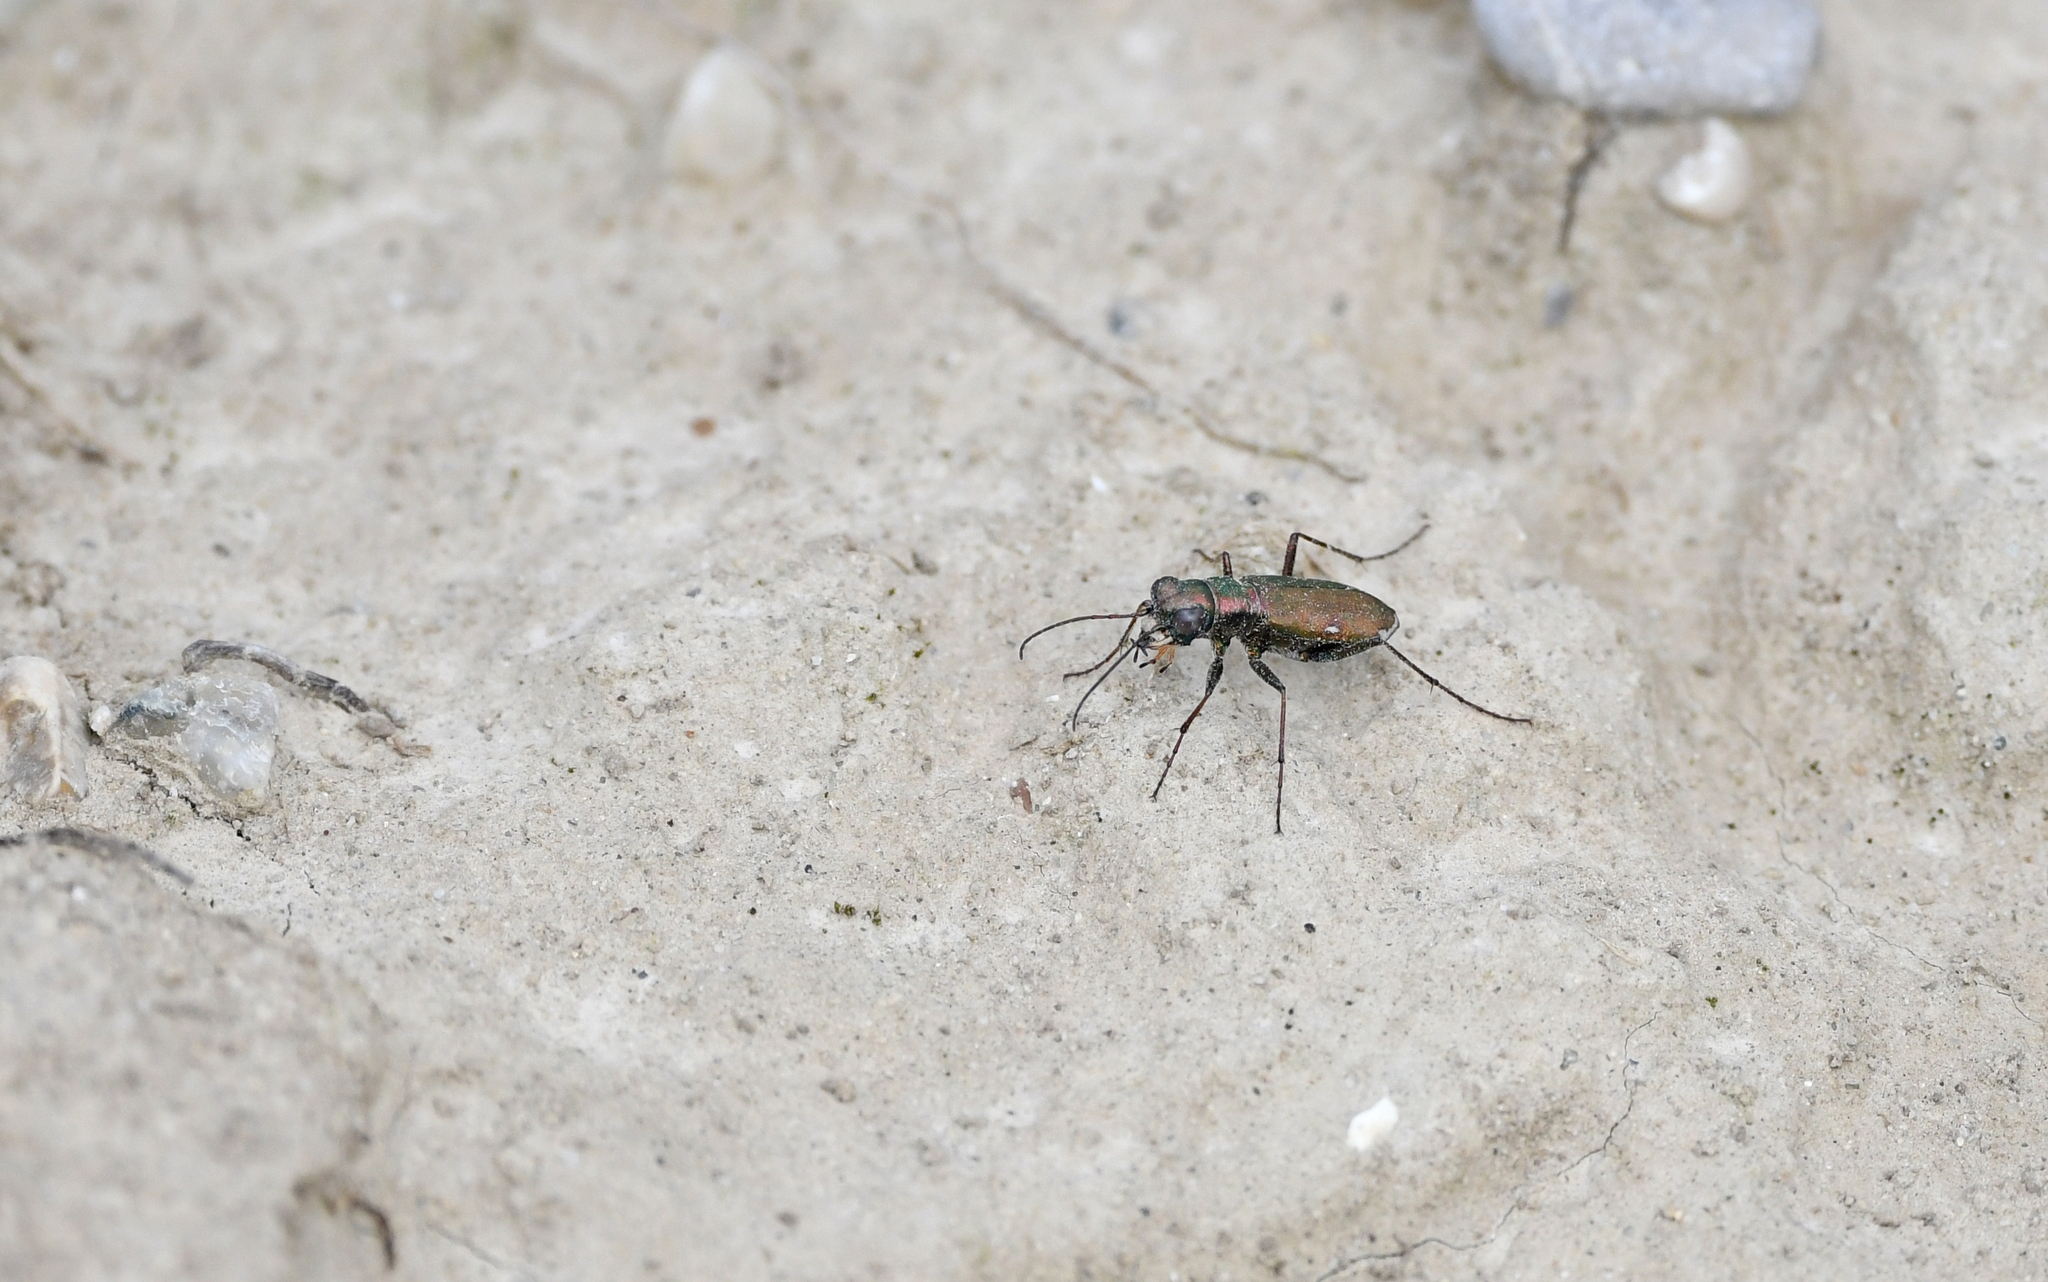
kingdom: Animalia
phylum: Arthropoda
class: Insecta
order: Coleoptera
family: Carabidae
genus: Cylindera
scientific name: Cylindera germanica
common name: Cliff tiger beetle
